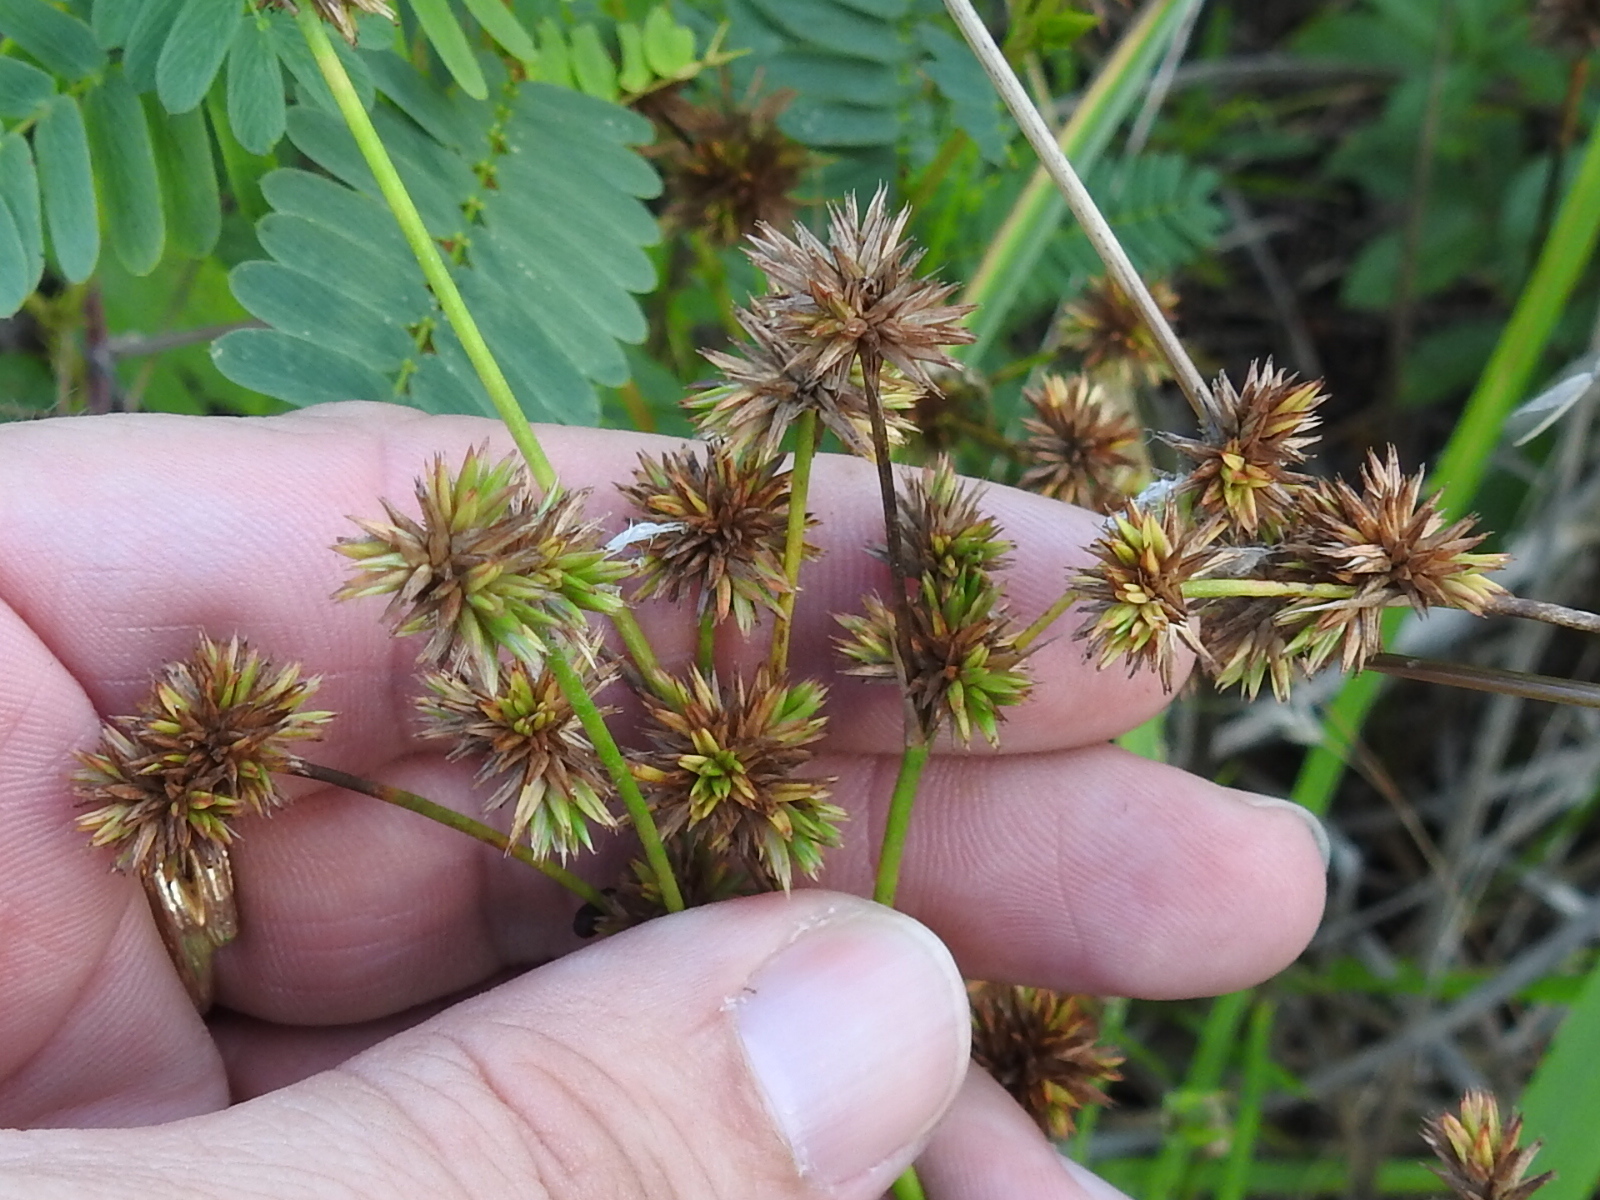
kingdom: Plantae
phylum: Tracheophyta
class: Liliopsida
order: Poales
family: Juncaceae
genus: Juncus
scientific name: Juncus validus
